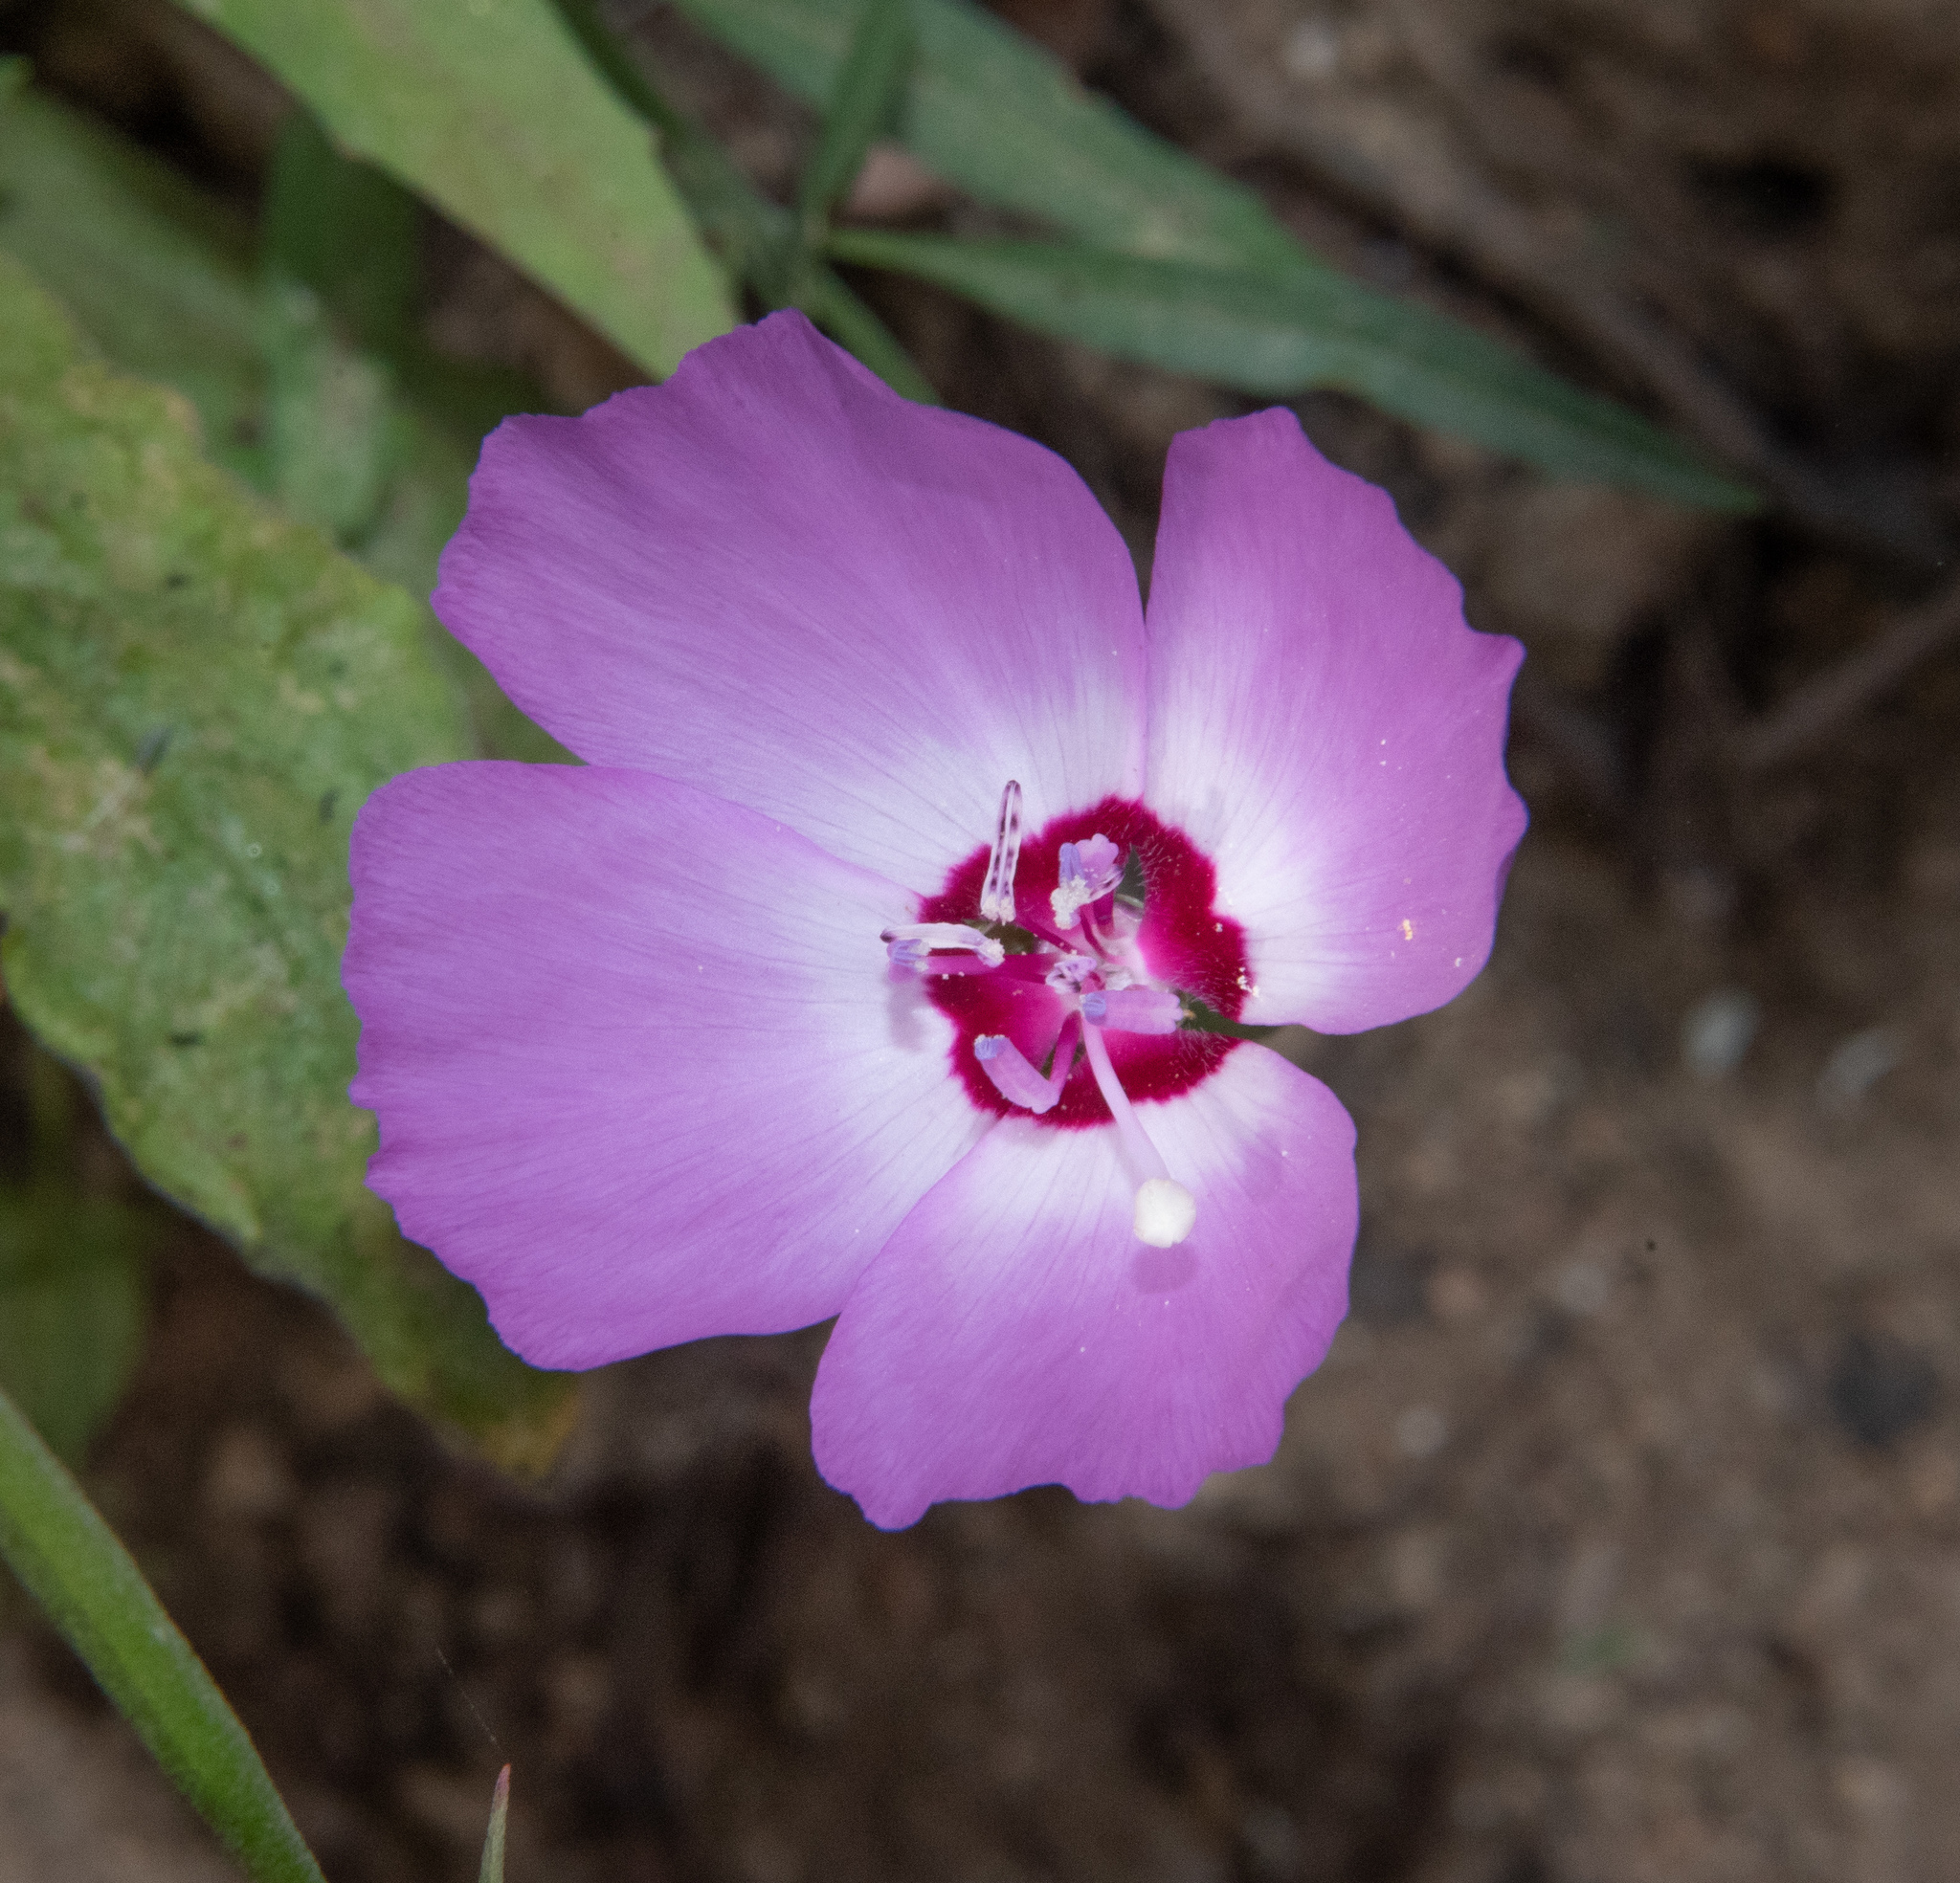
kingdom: Plantae
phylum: Tracheophyta
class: Magnoliopsida
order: Myrtales
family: Onagraceae
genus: Clarkia
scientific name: Clarkia cylindrica
